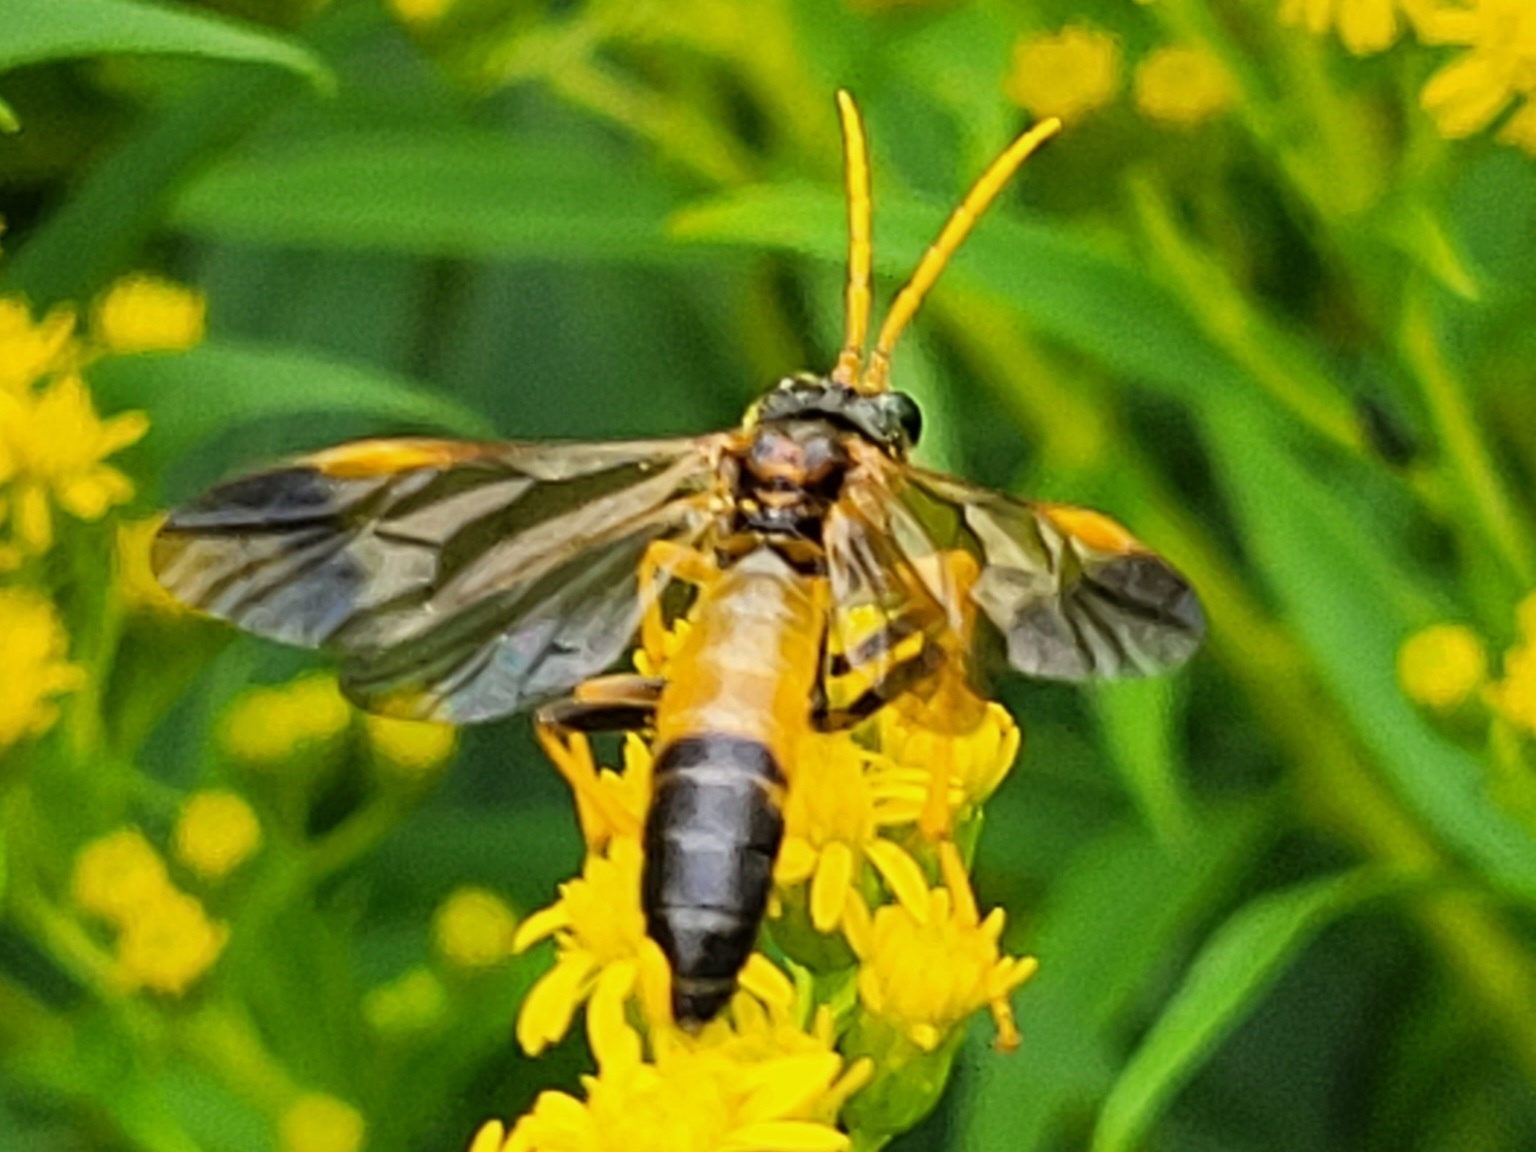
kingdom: Animalia
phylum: Arthropoda
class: Insecta
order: Hymenoptera
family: Tenthredinidae
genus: Tenthredo
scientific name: Tenthredo campestris
